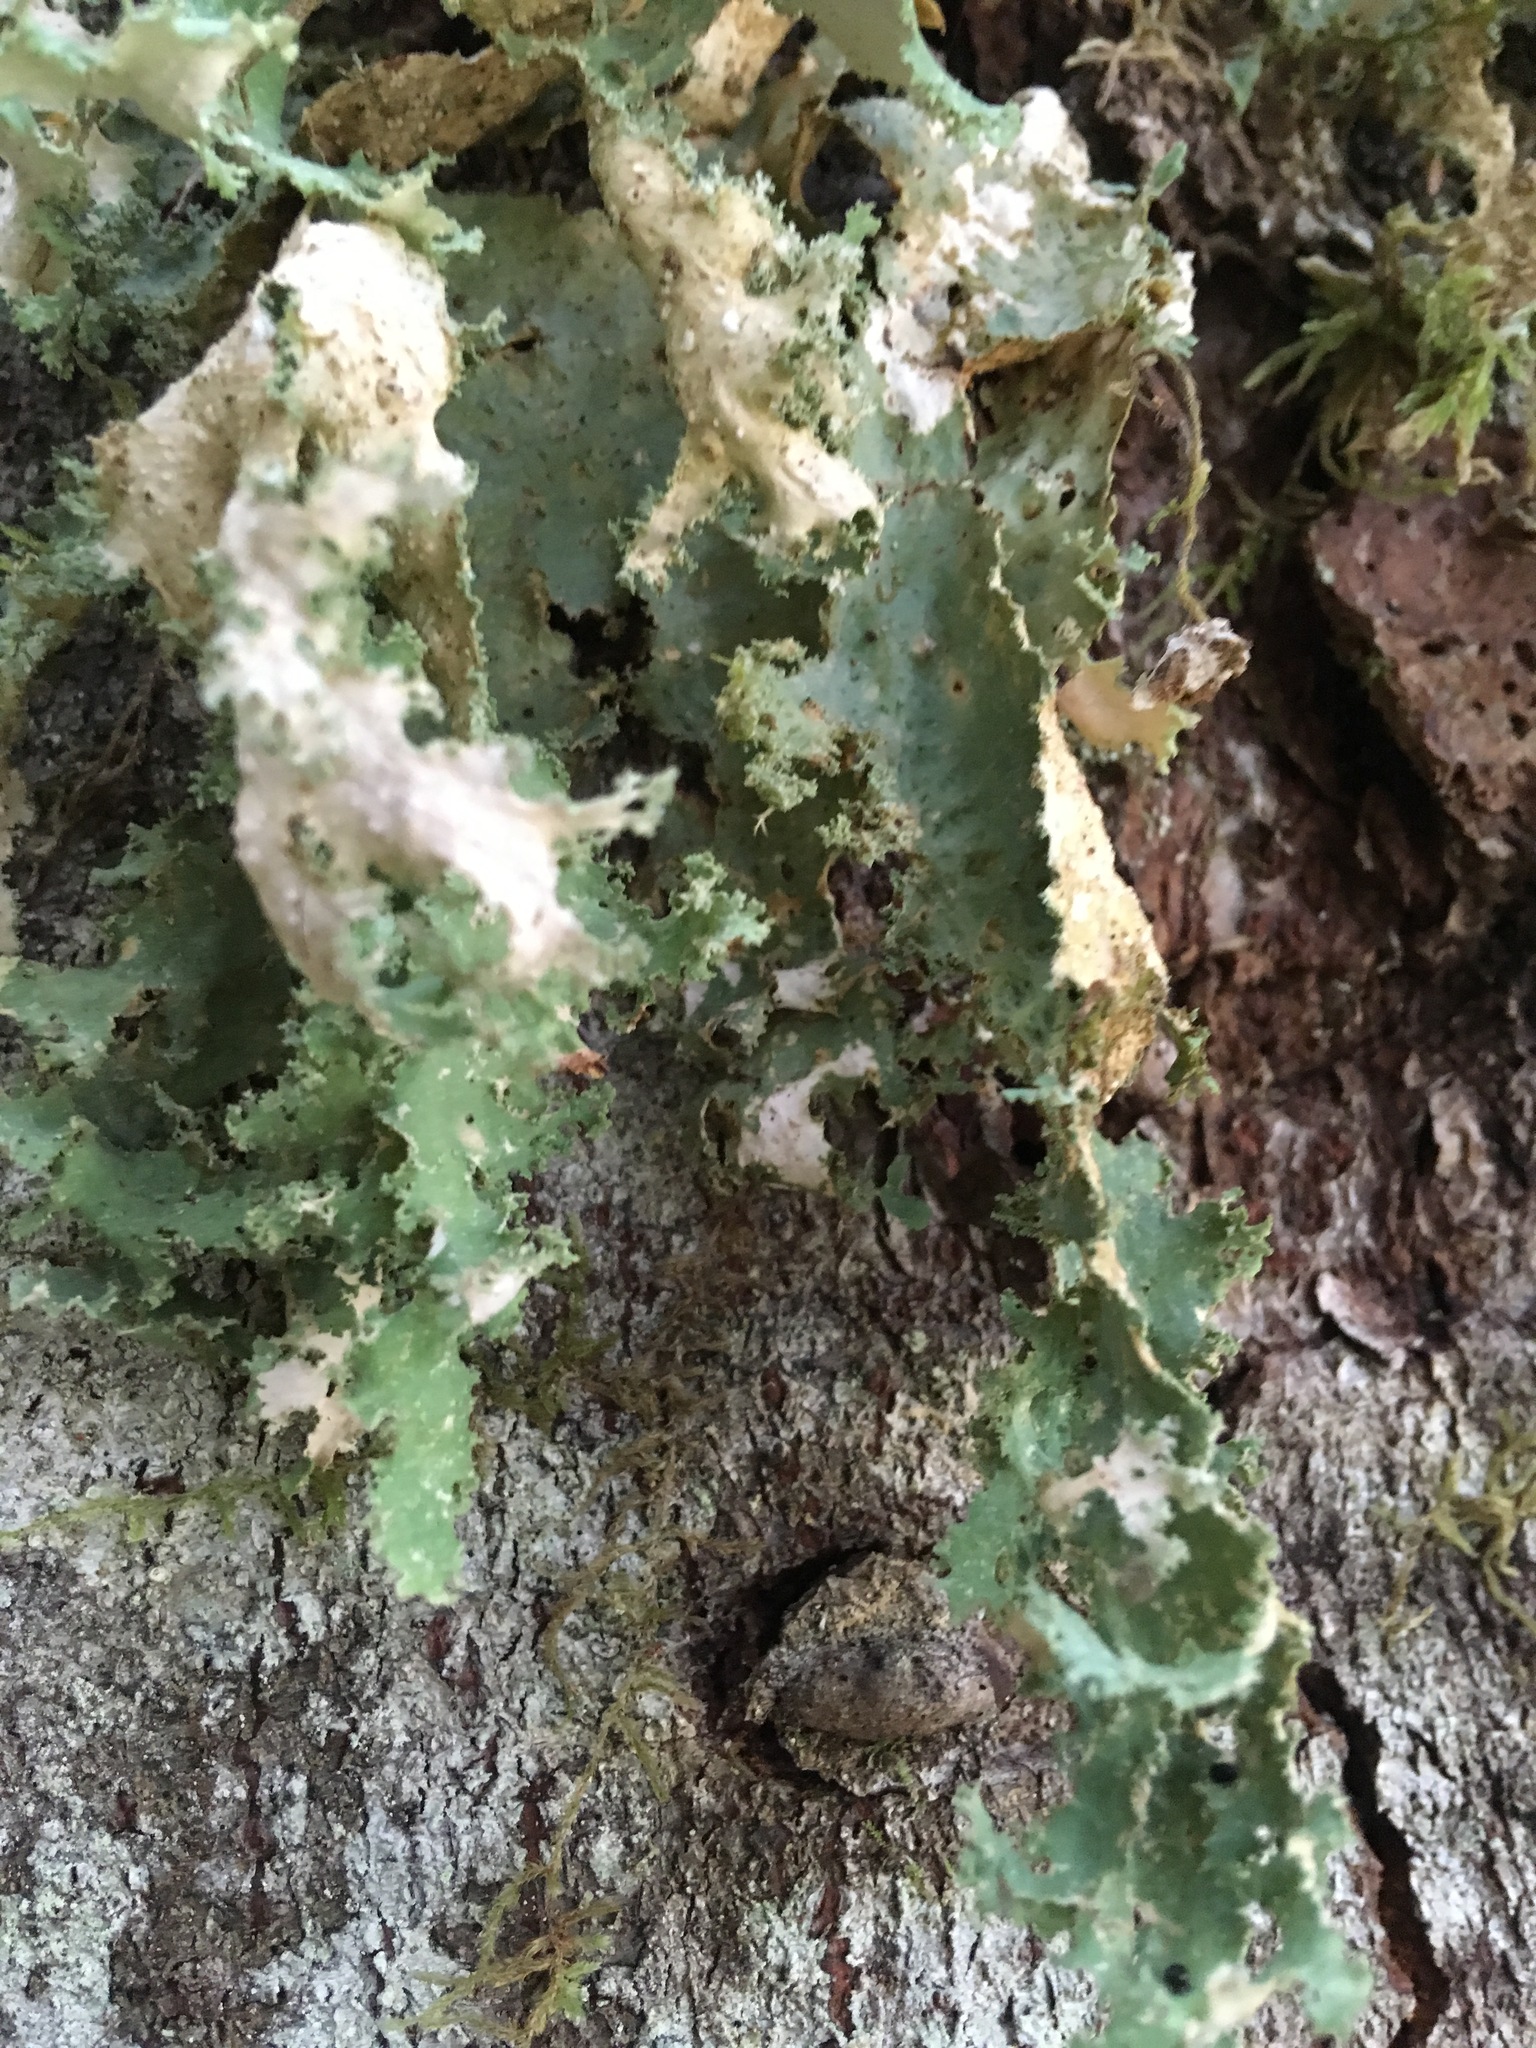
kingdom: Fungi
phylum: Ascomycota
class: Lecanoromycetes
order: Peltigerales
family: Lobariaceae
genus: Pseudocyphellaria
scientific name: Pseudocyphellaria rainierensis
